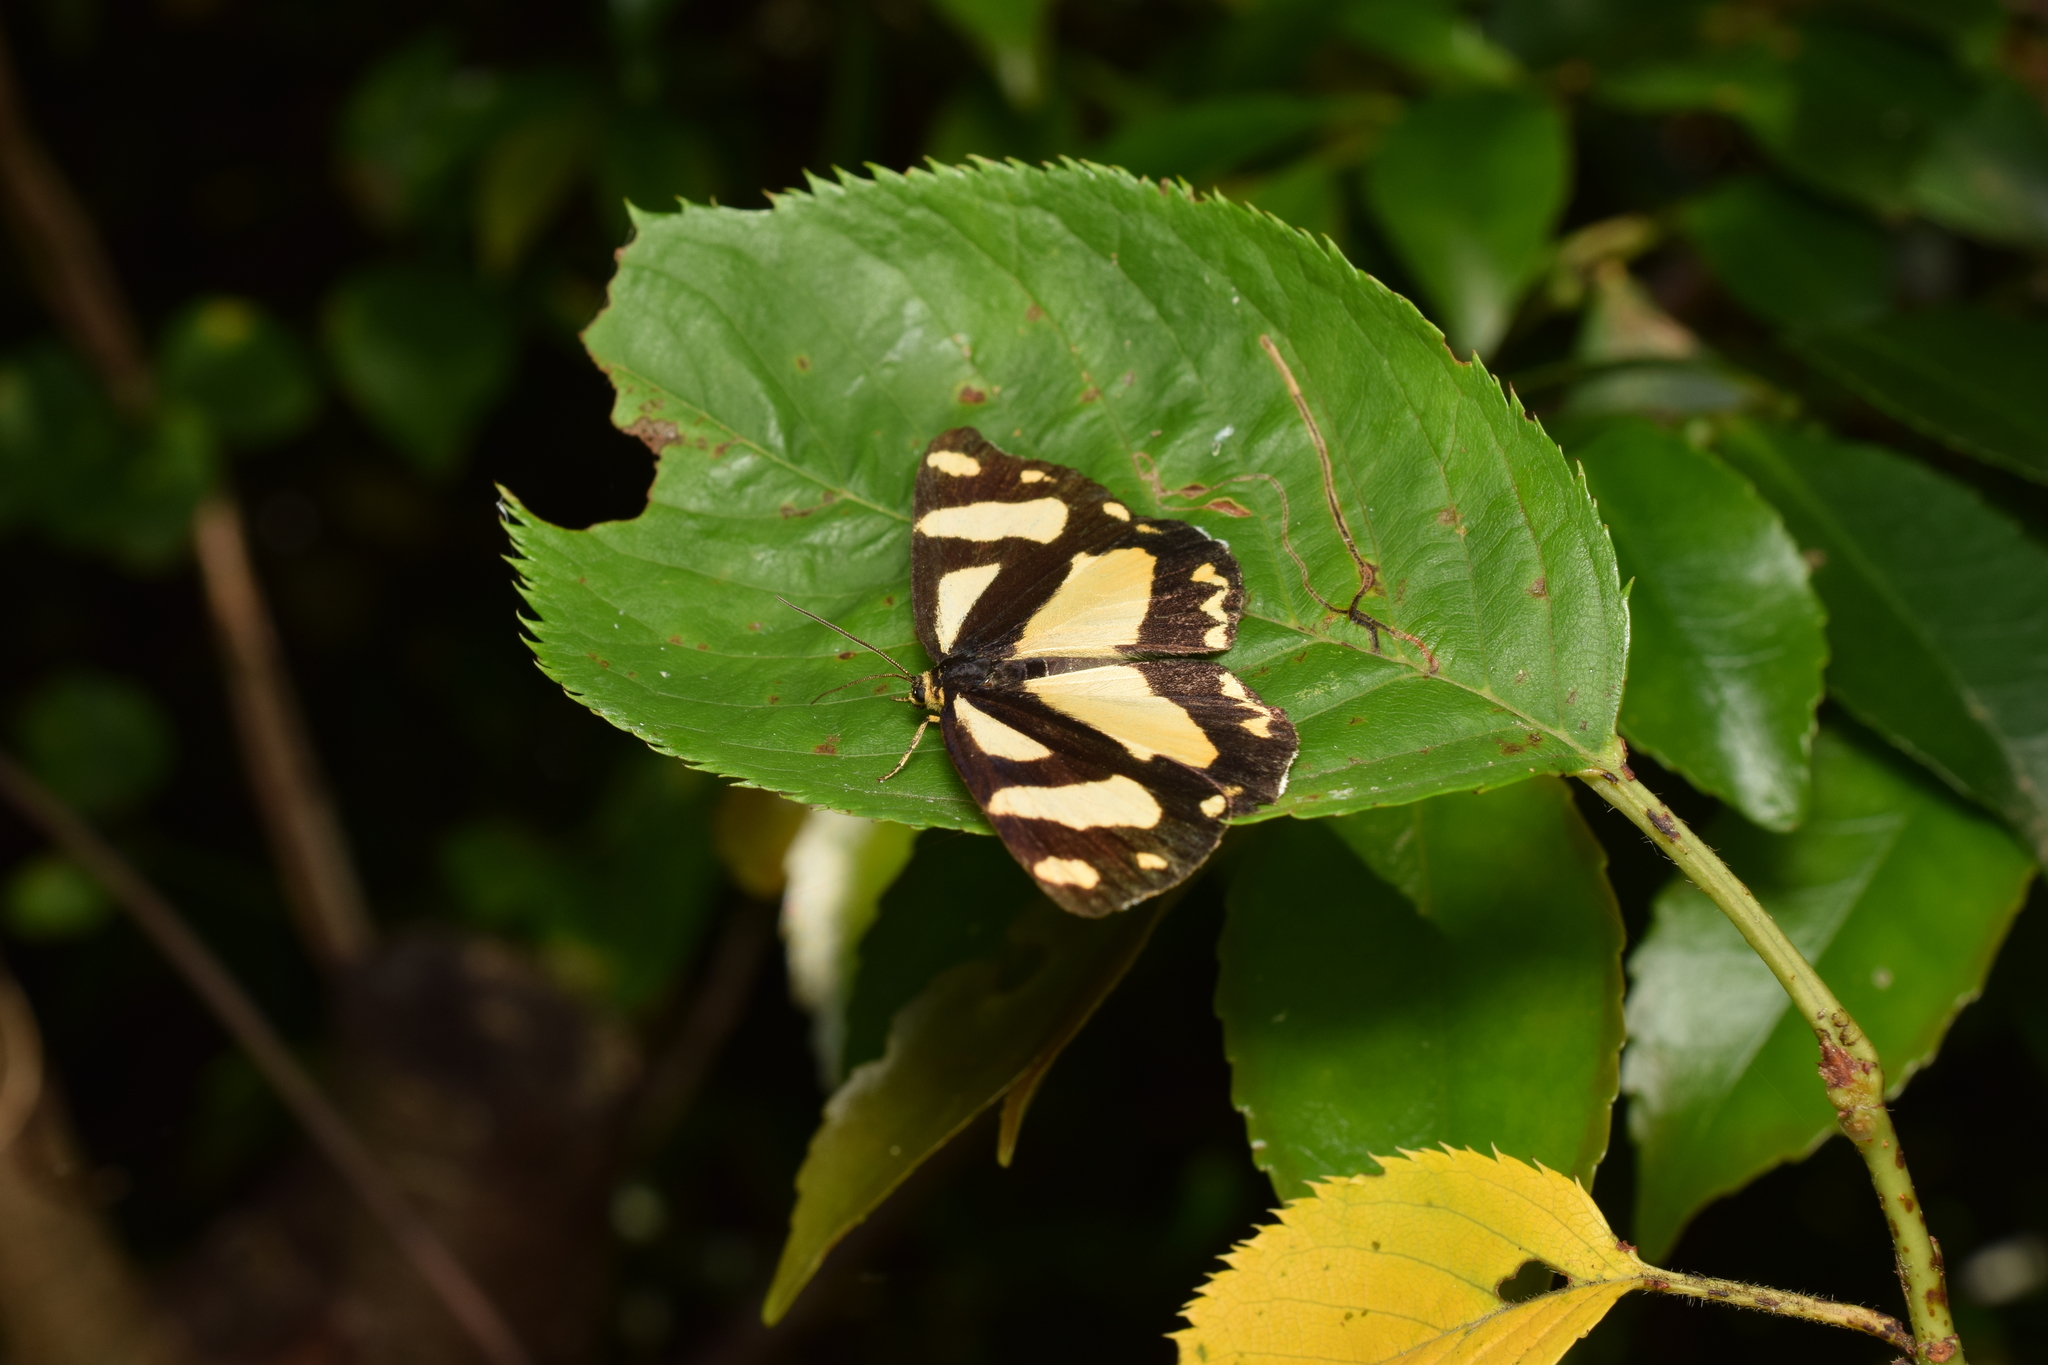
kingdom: Animalia
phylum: Arthropoda
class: Insecta
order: Lepidoptera
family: Epicopeiidae
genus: Psychostrophia
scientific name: Psychostrophia melanargia
